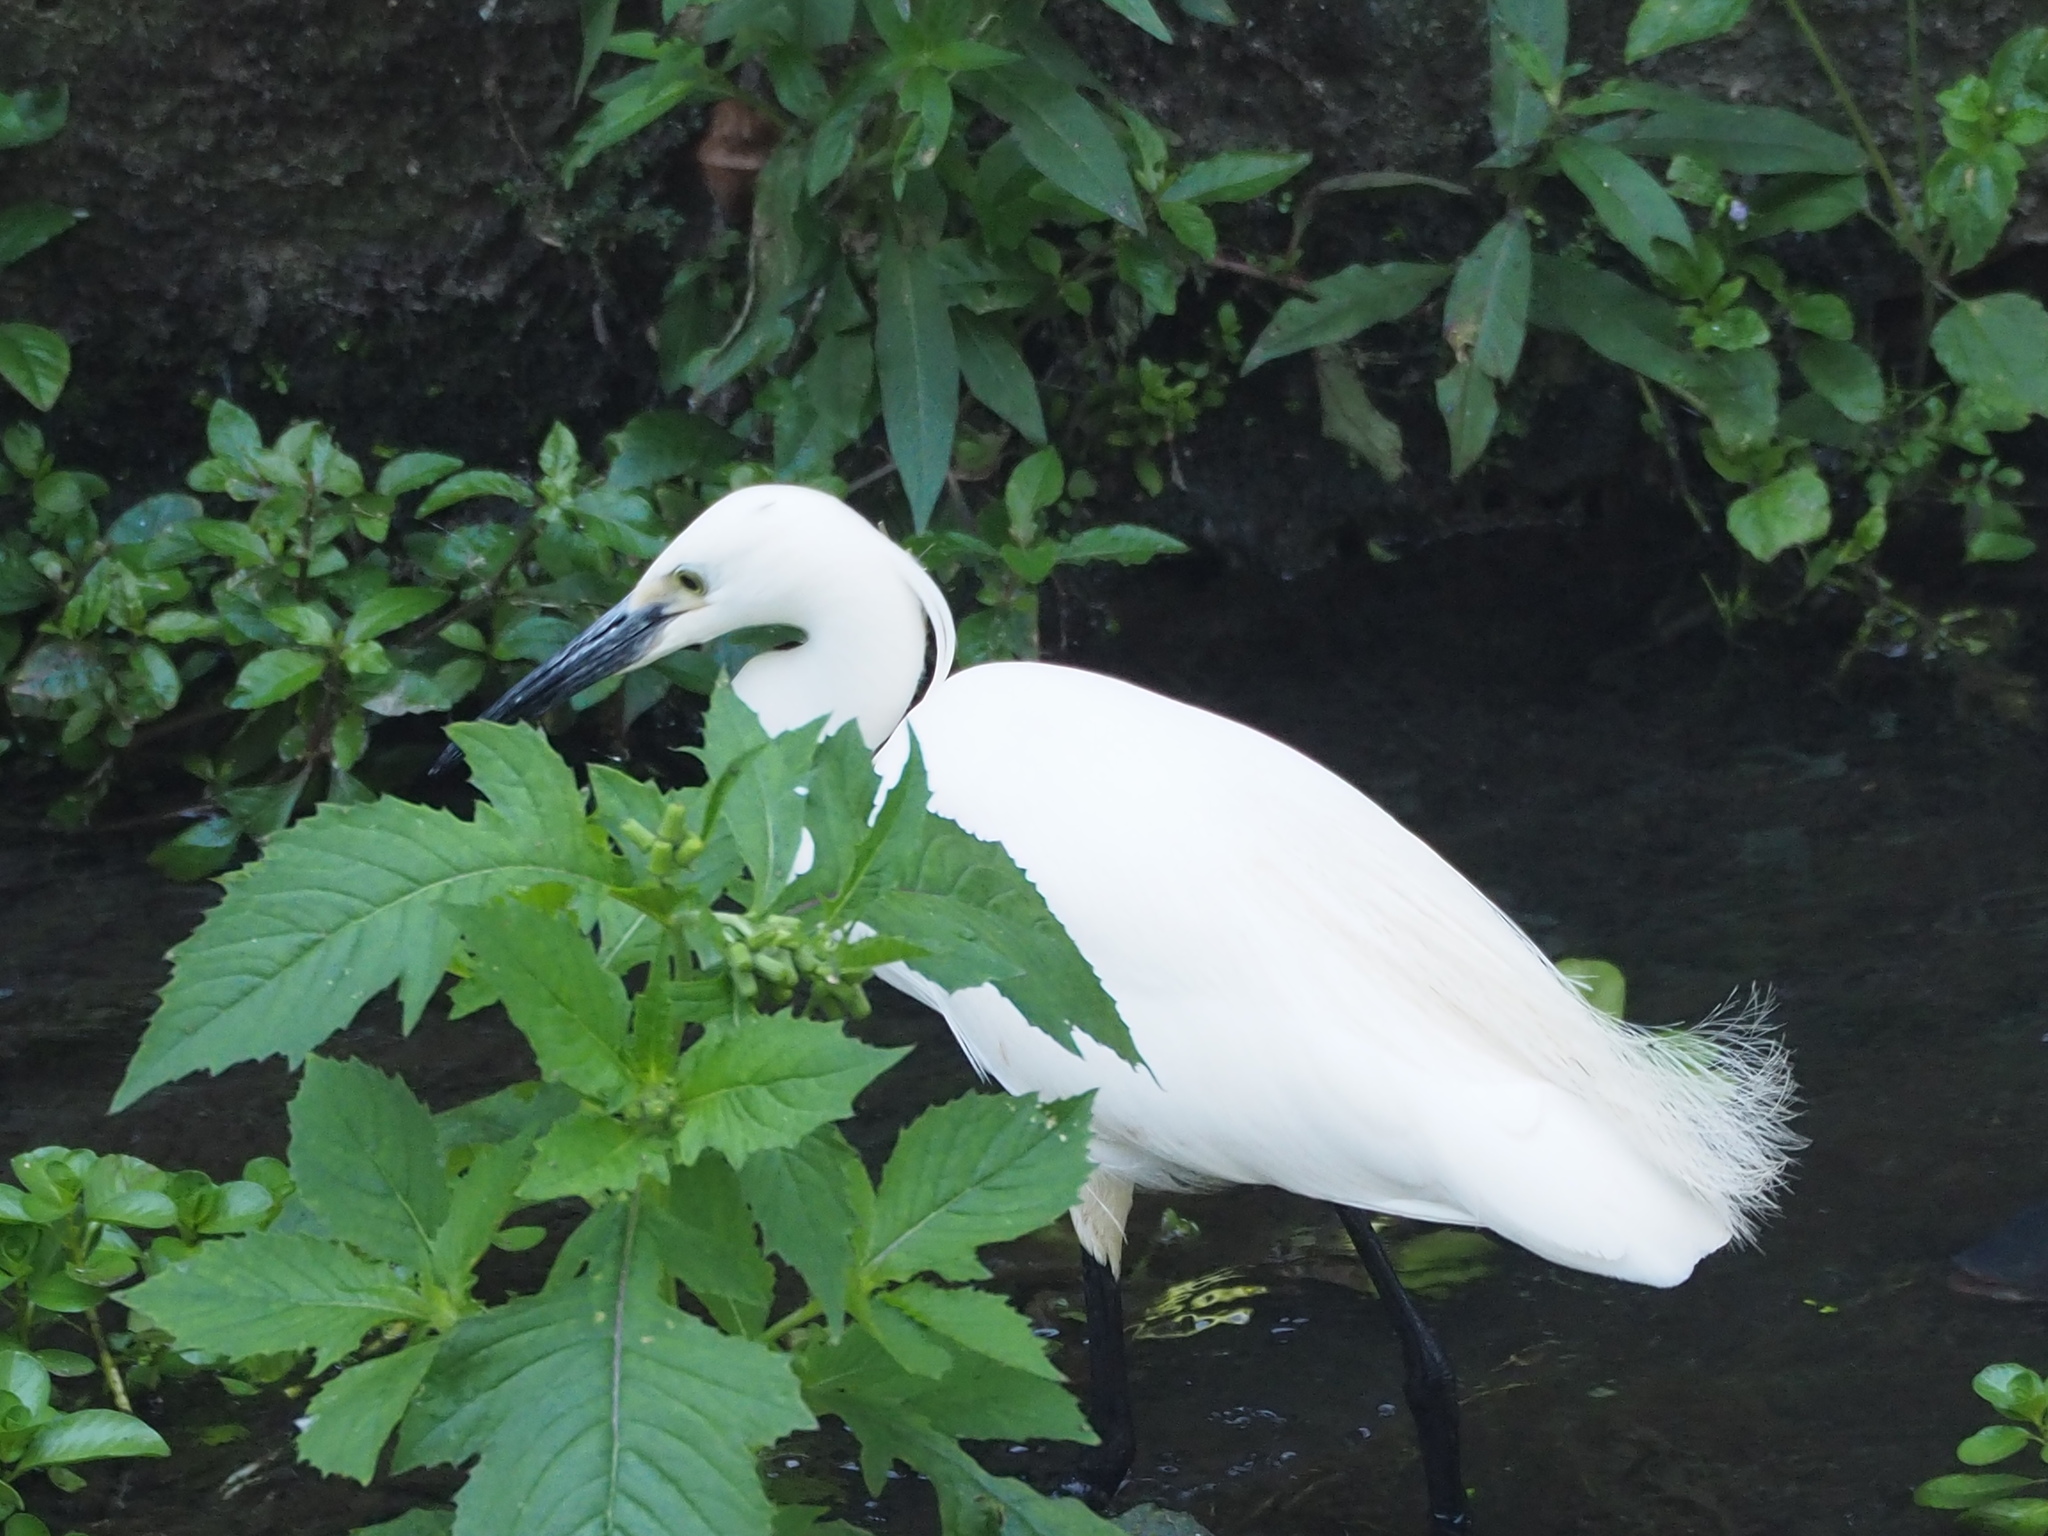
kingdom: Animalia
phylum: Chordata
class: Aves
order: Pelecaniformes
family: Ardeidae
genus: Egretta
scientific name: Egretta garzetta
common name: Little egret
